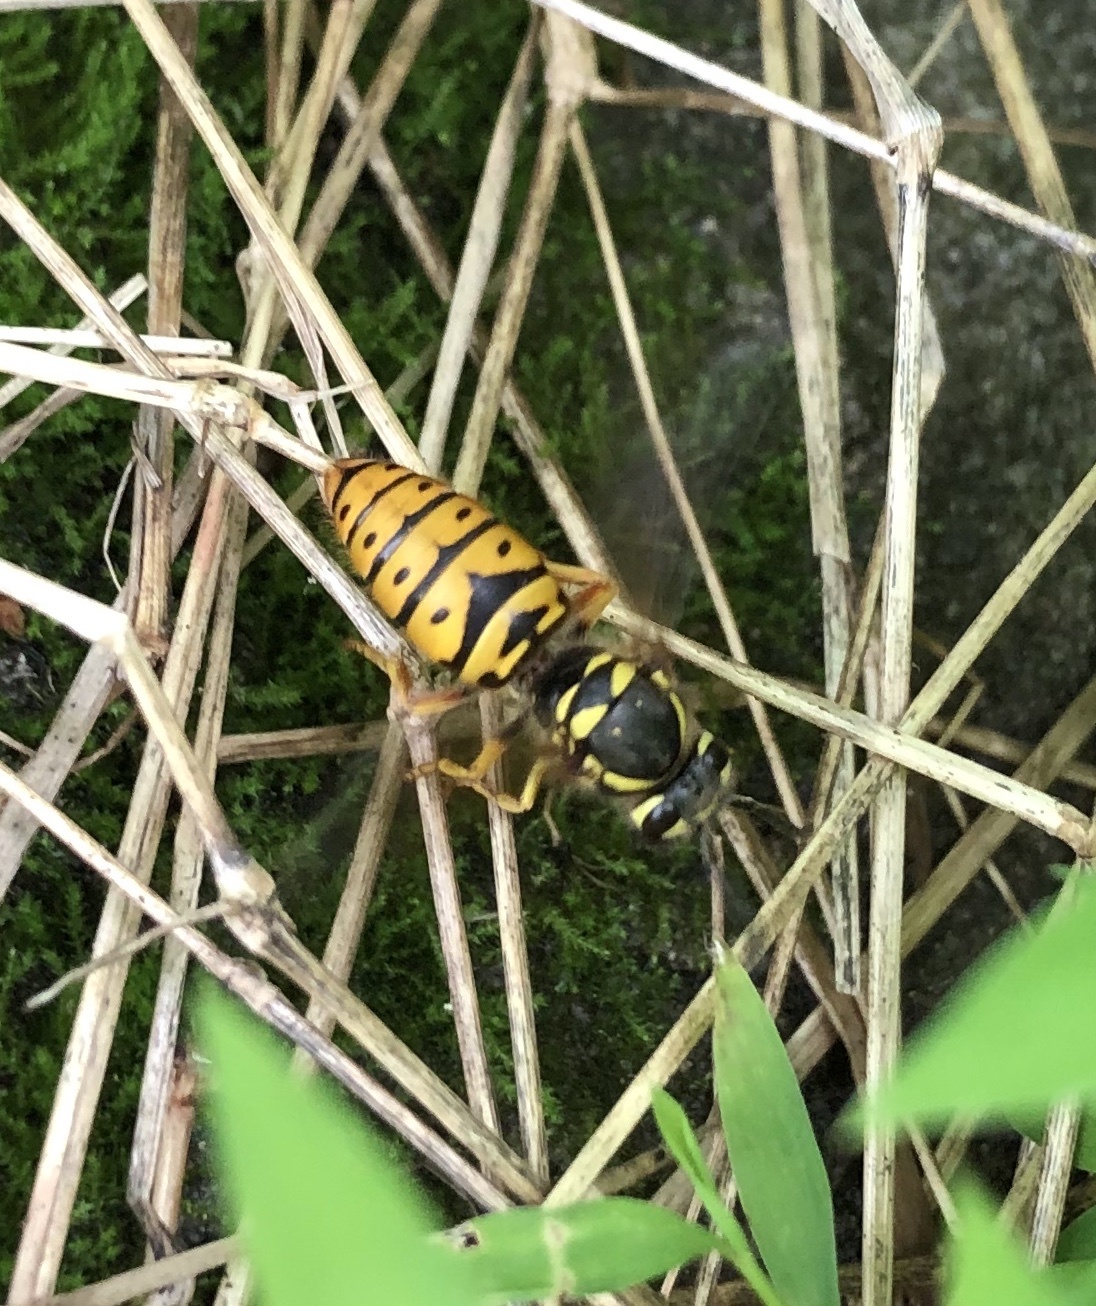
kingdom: Animalia
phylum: Arthropoda
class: Insecta
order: Hymenoptera
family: Vespidae
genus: Vespula
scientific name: Vespula maculifrons
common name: Eastern yellowjacket
